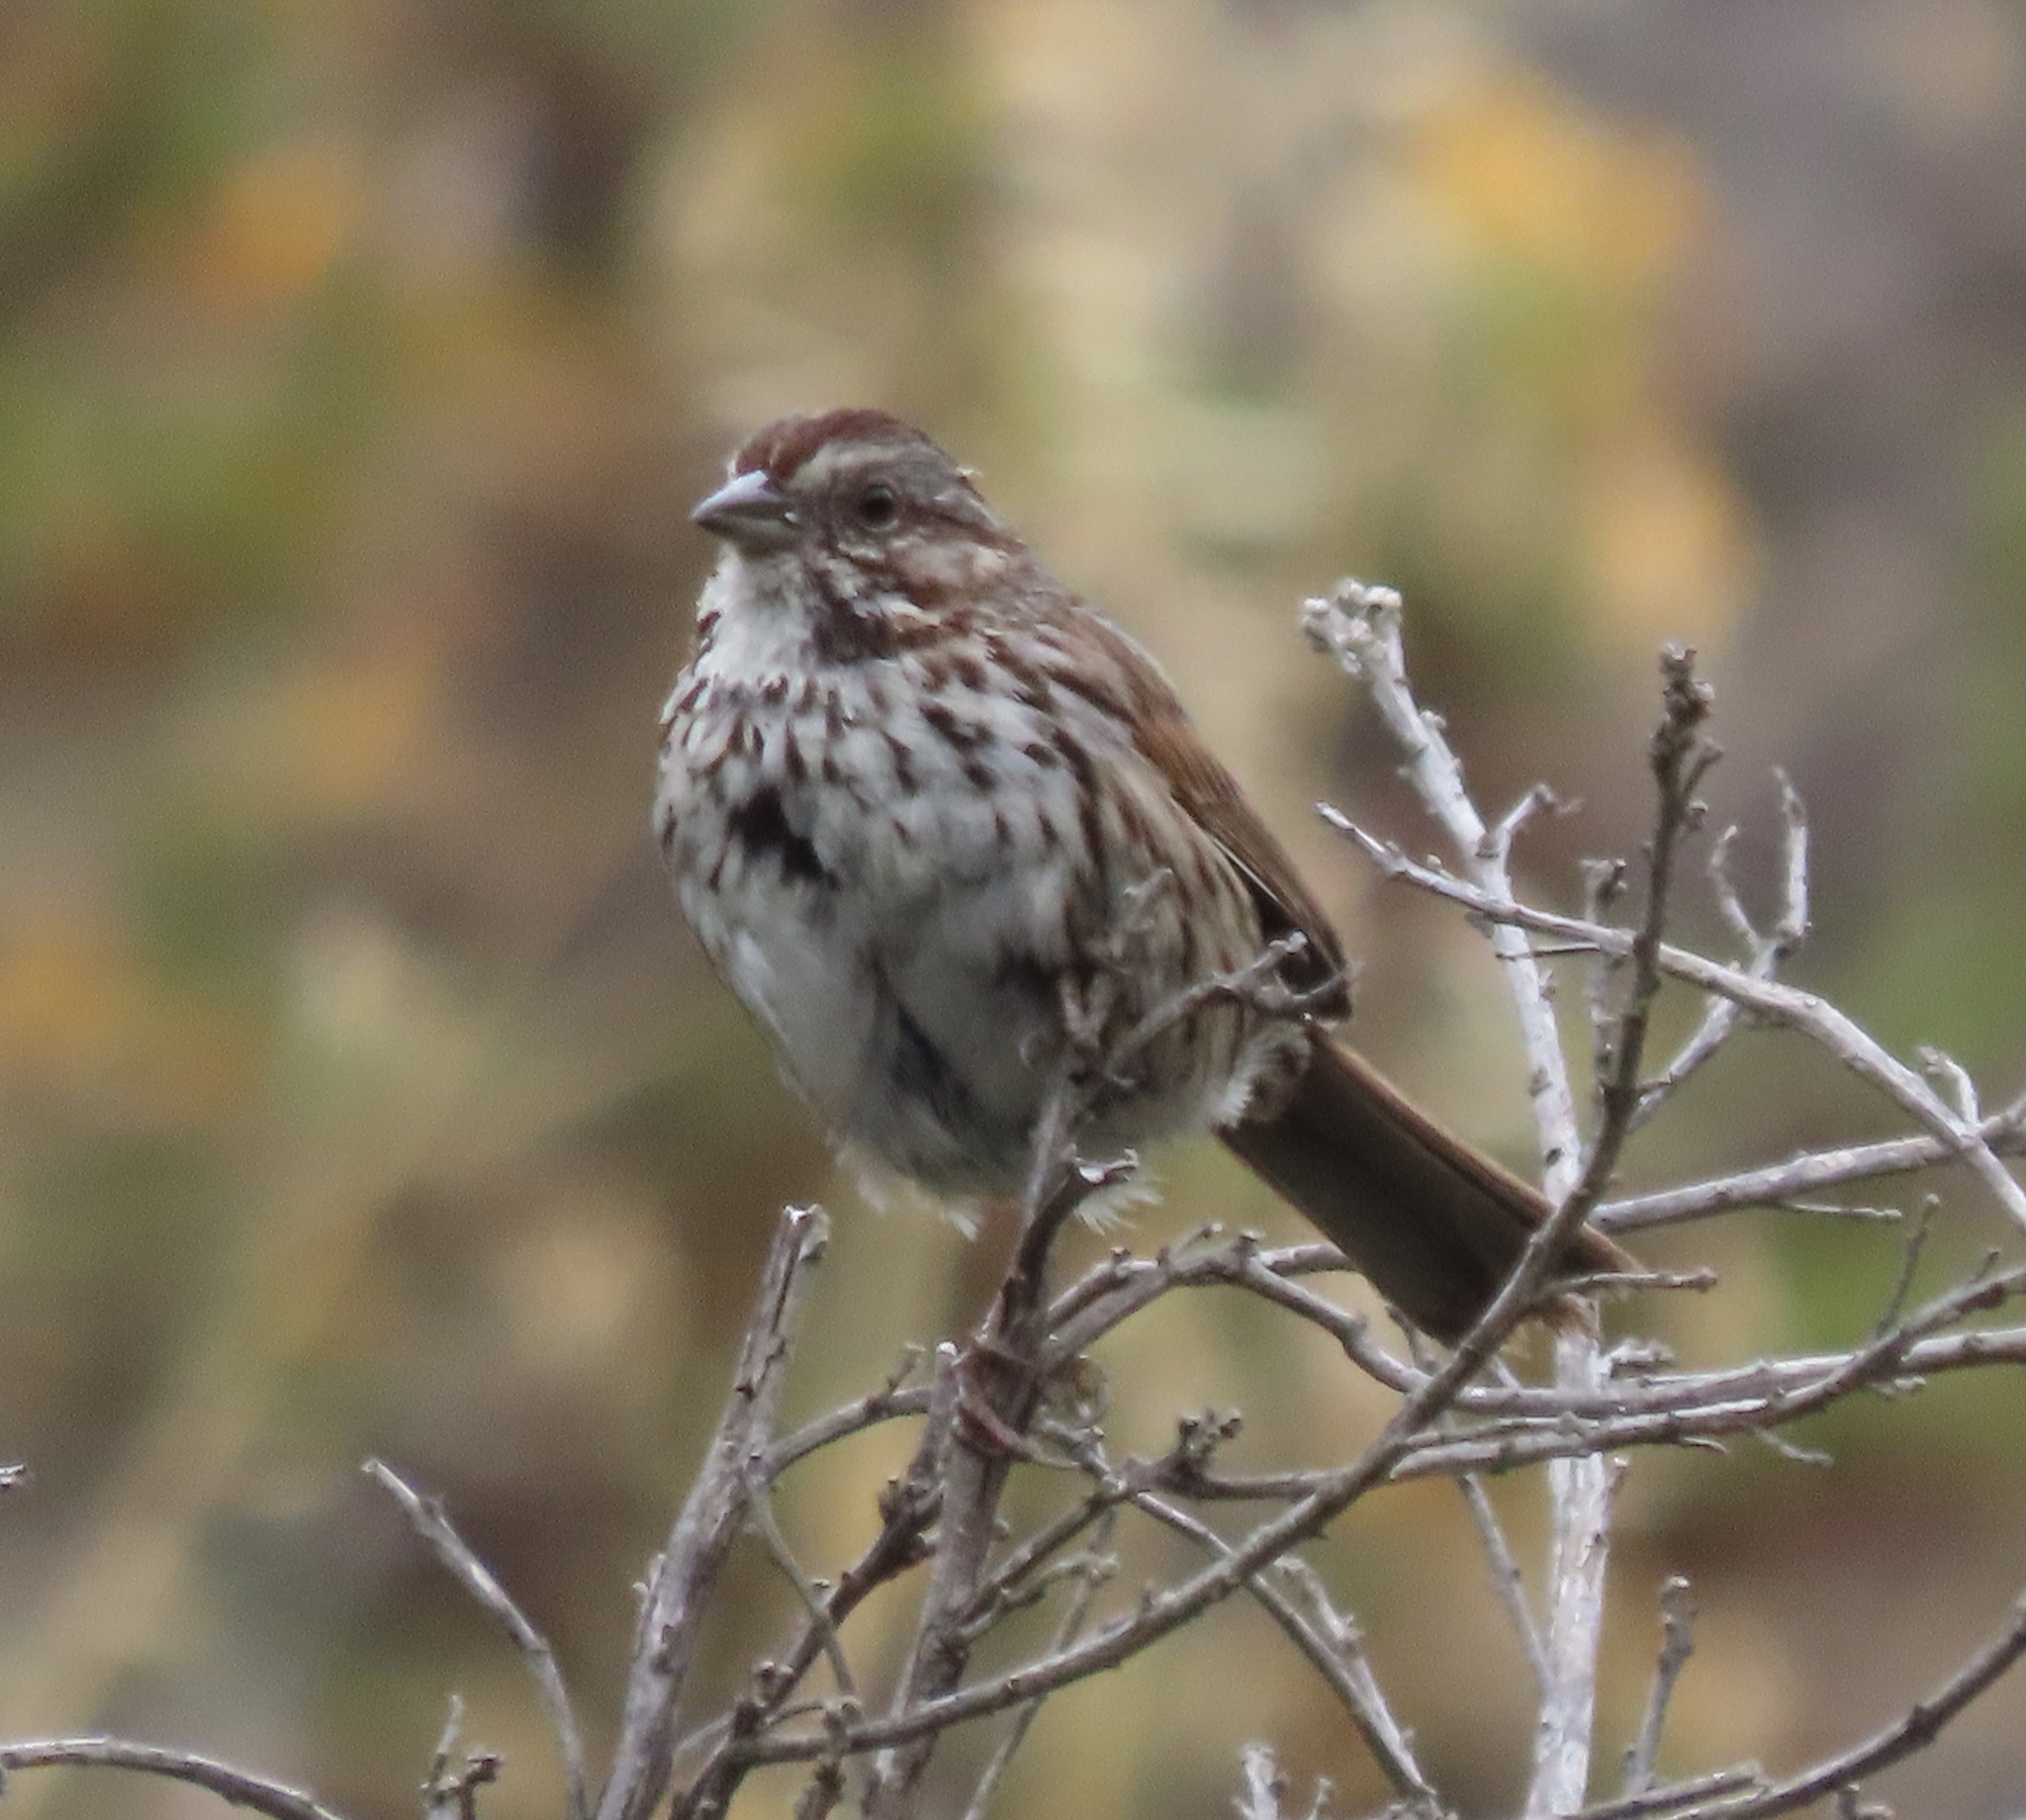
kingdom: Animalia
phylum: Chordata
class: Aves
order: Passeriformes
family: Passerellidae
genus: Melospiza
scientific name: Melospiza melodia
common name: Song sparrow
